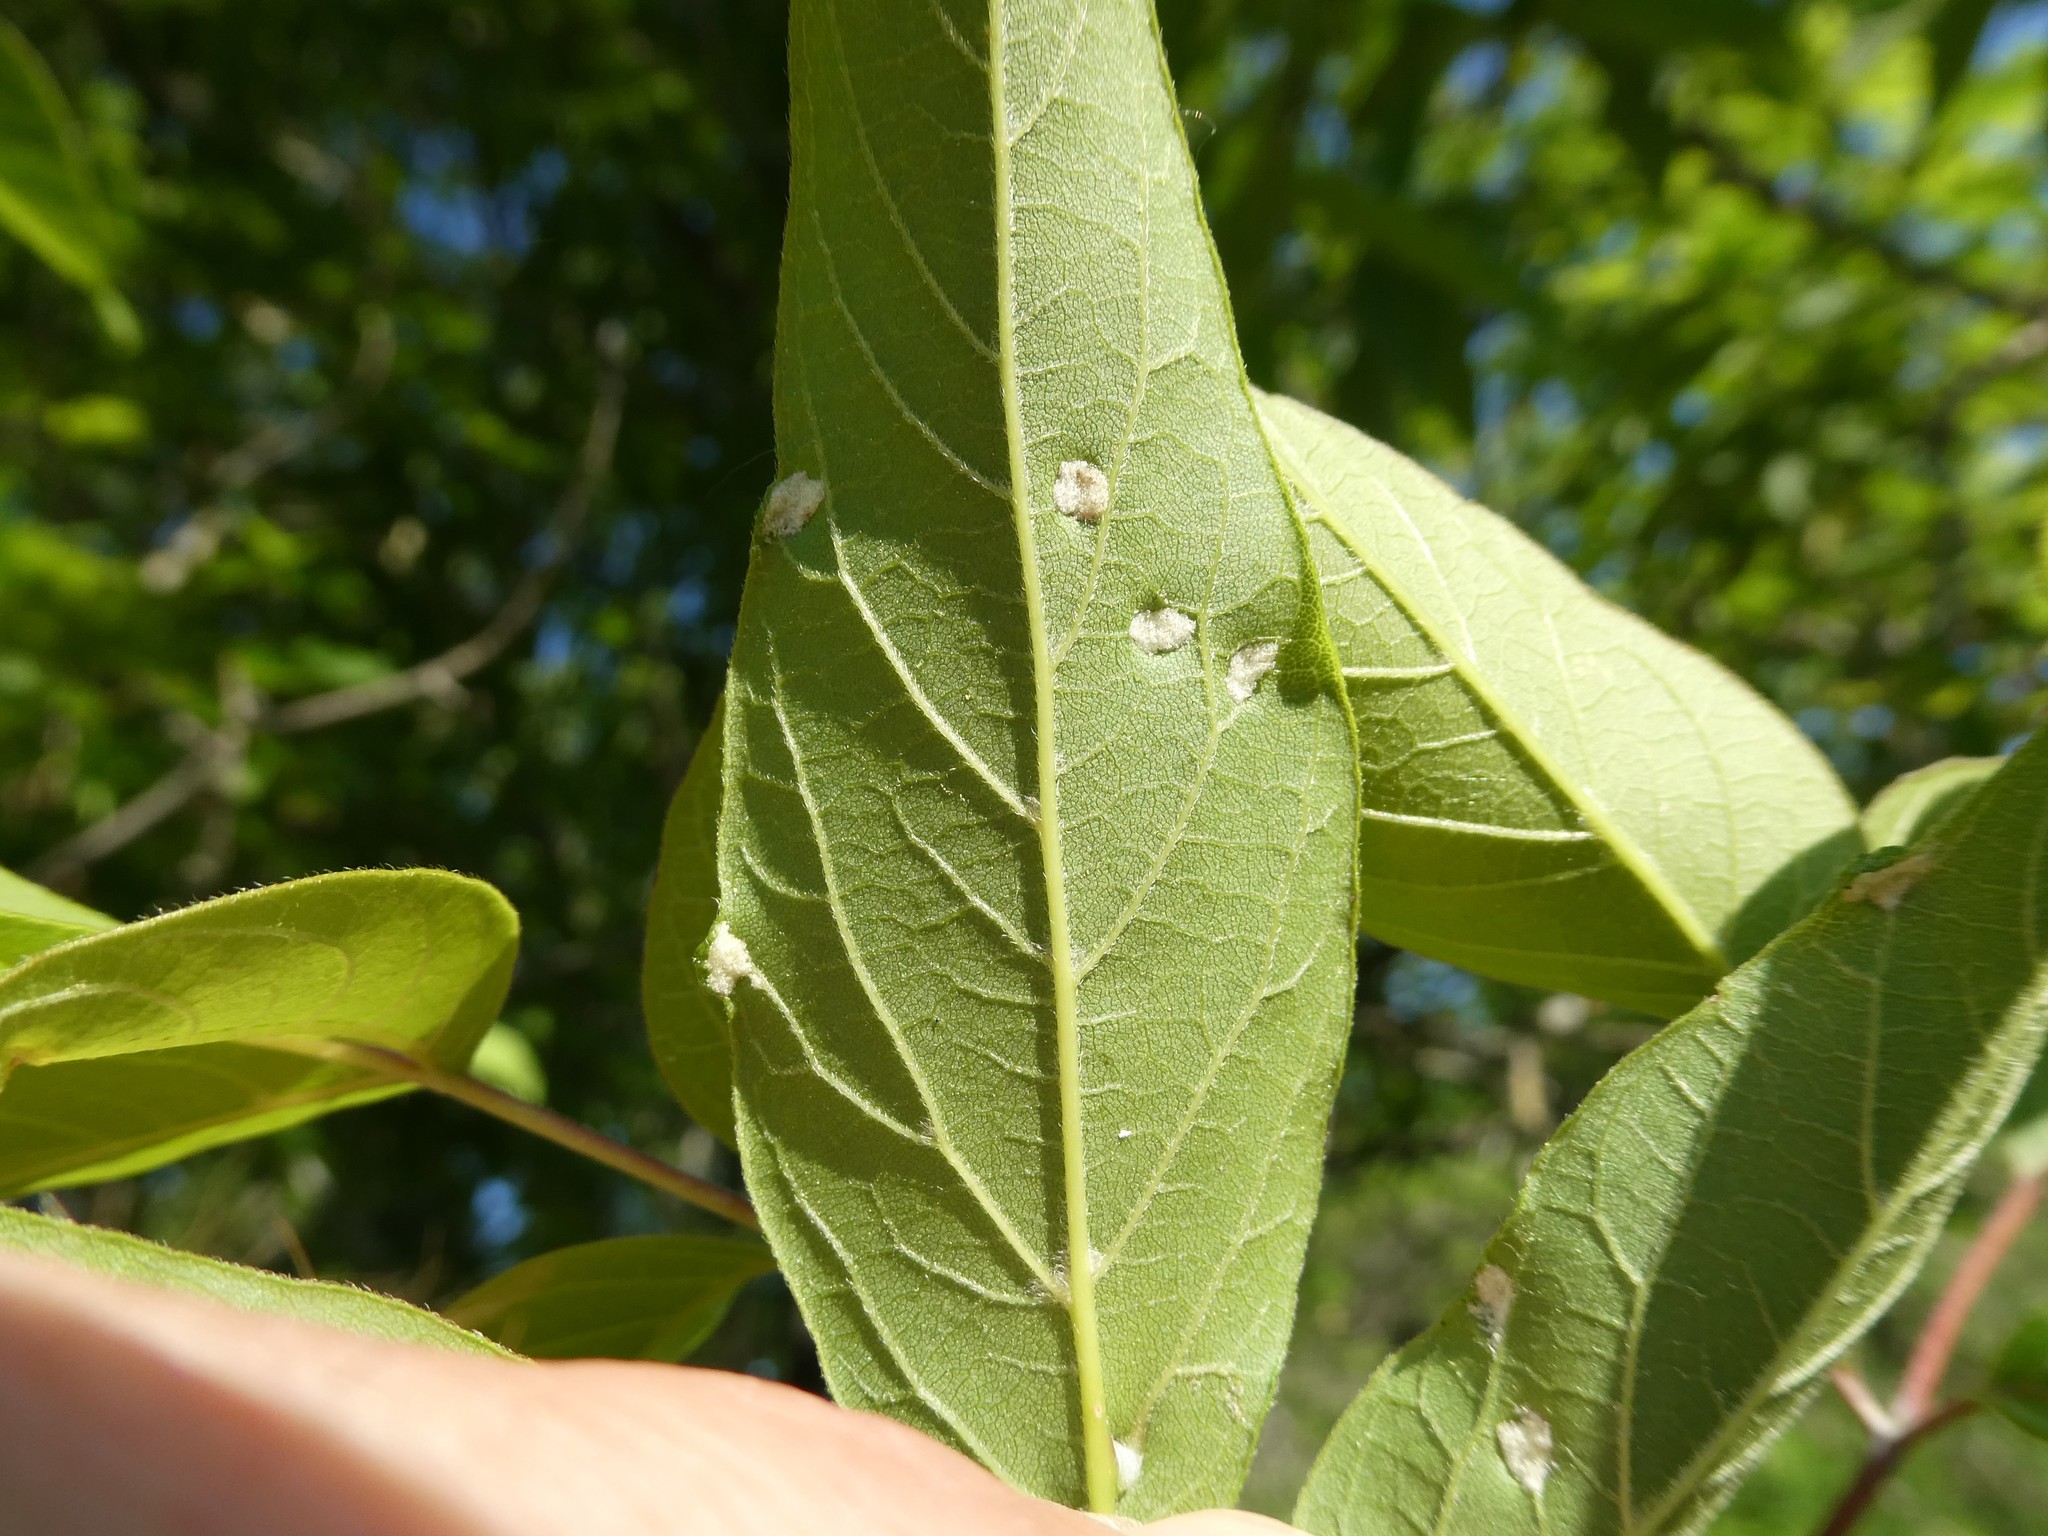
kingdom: Animalia
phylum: Arthropoda
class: Arachnida
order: Trombidiformes
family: Eriophyidae
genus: Aceria
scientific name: Aceria
